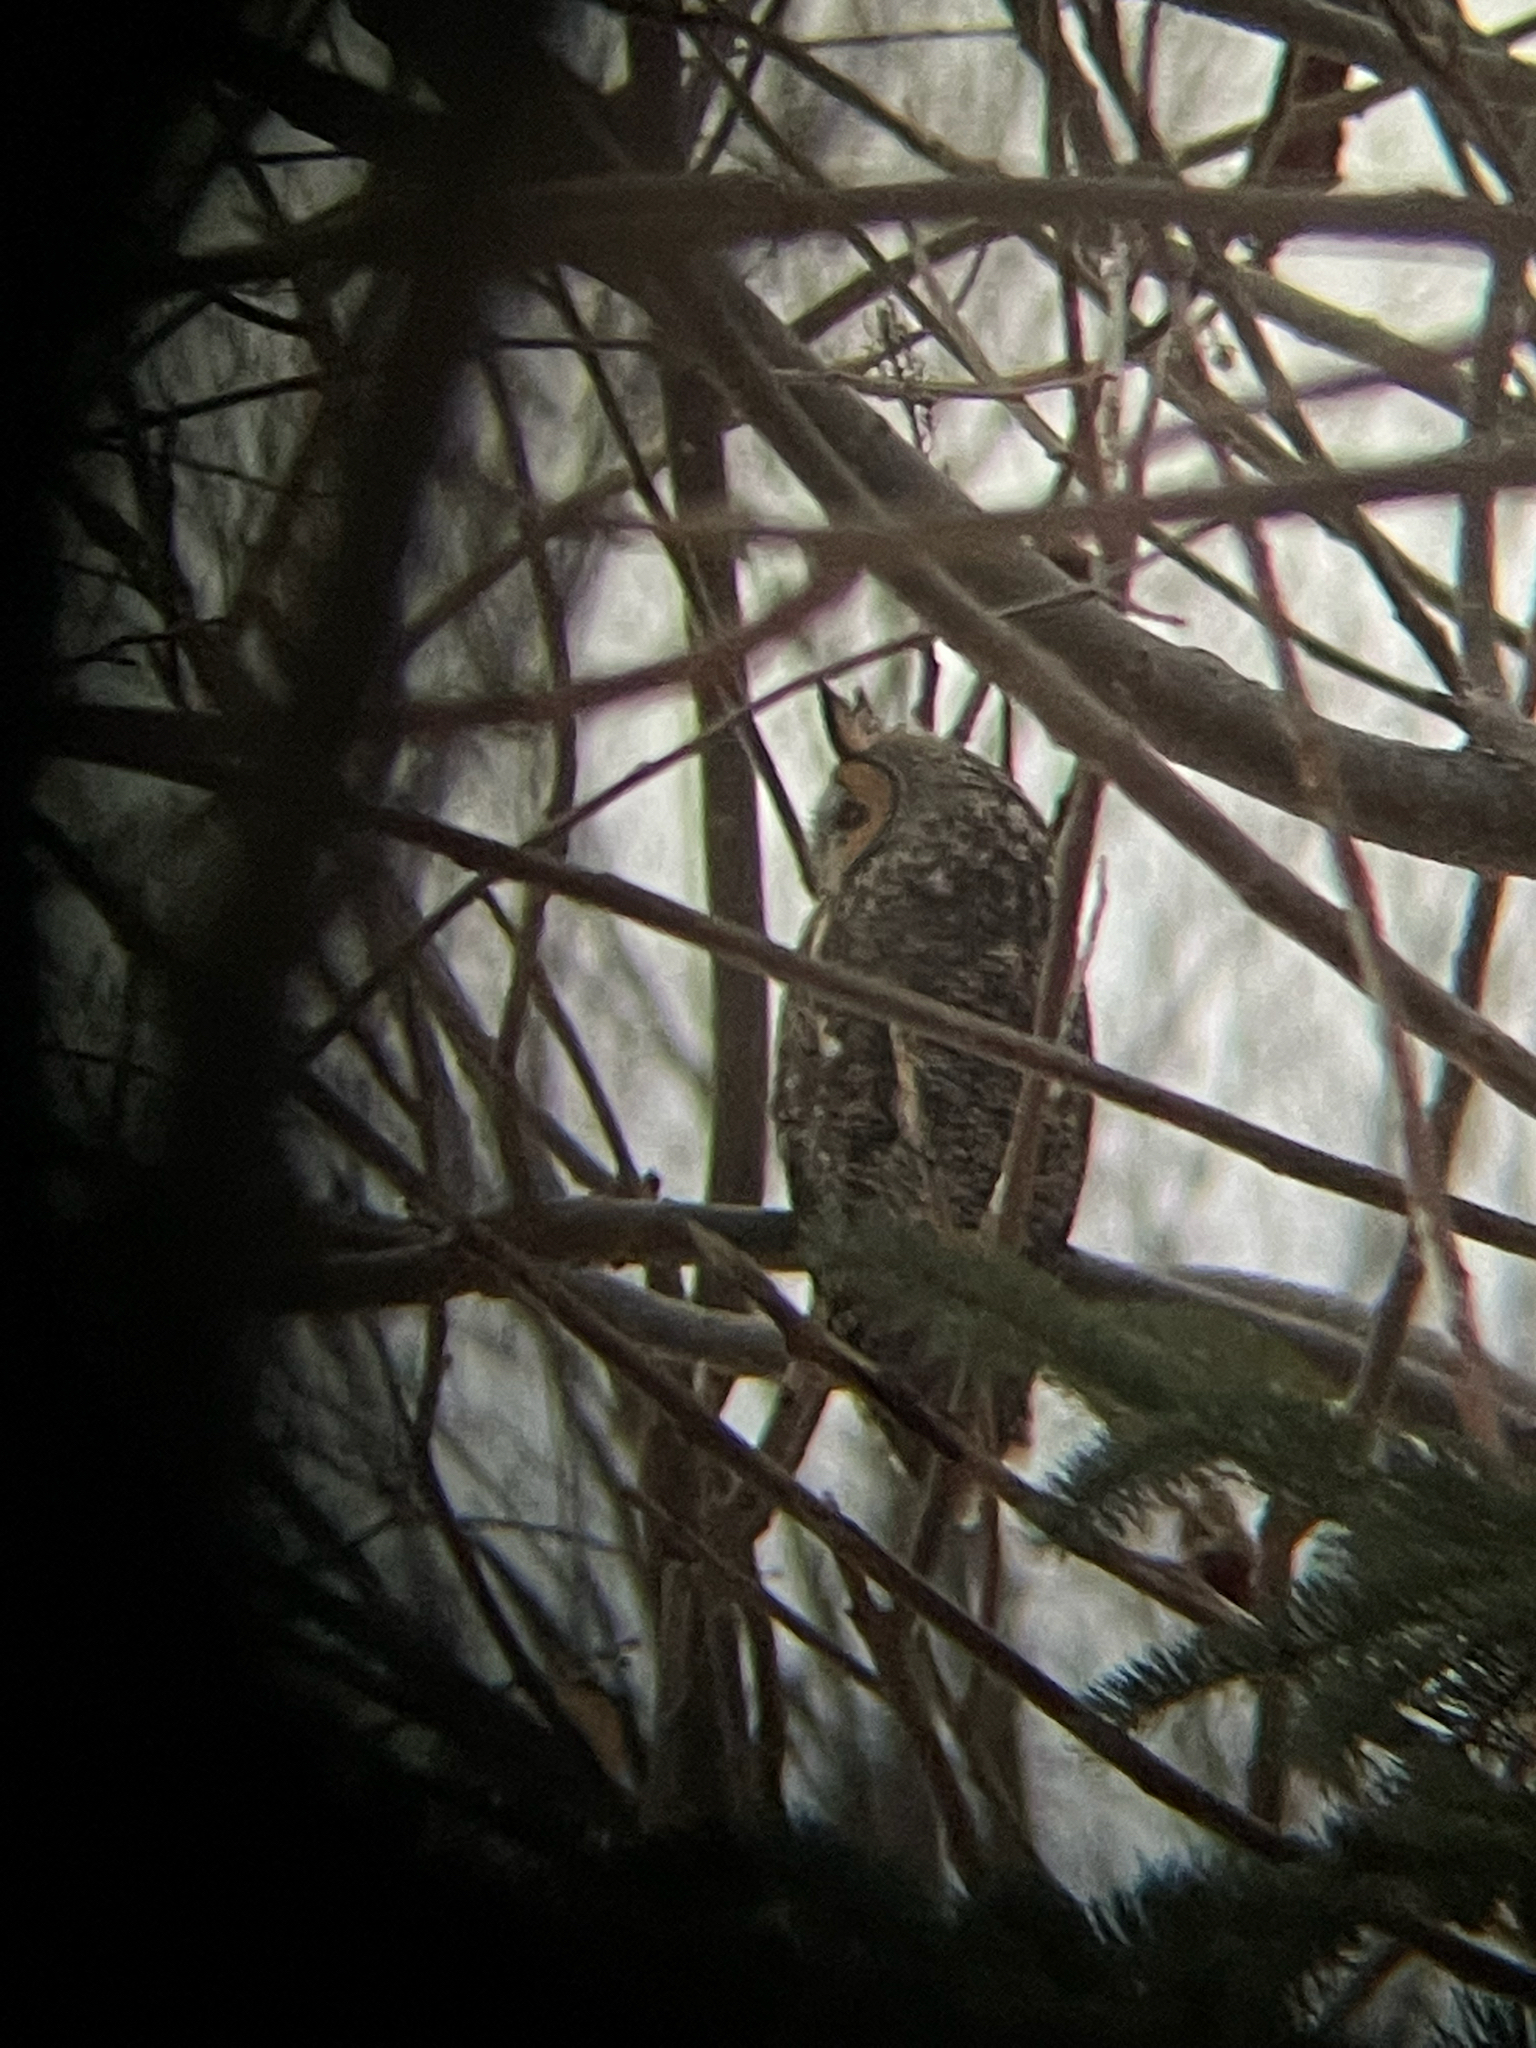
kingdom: Animalia
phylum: Chordata
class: Aves
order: Strigiformes
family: Strigidae
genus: Asio
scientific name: Asio otus
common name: Long-eared owl
